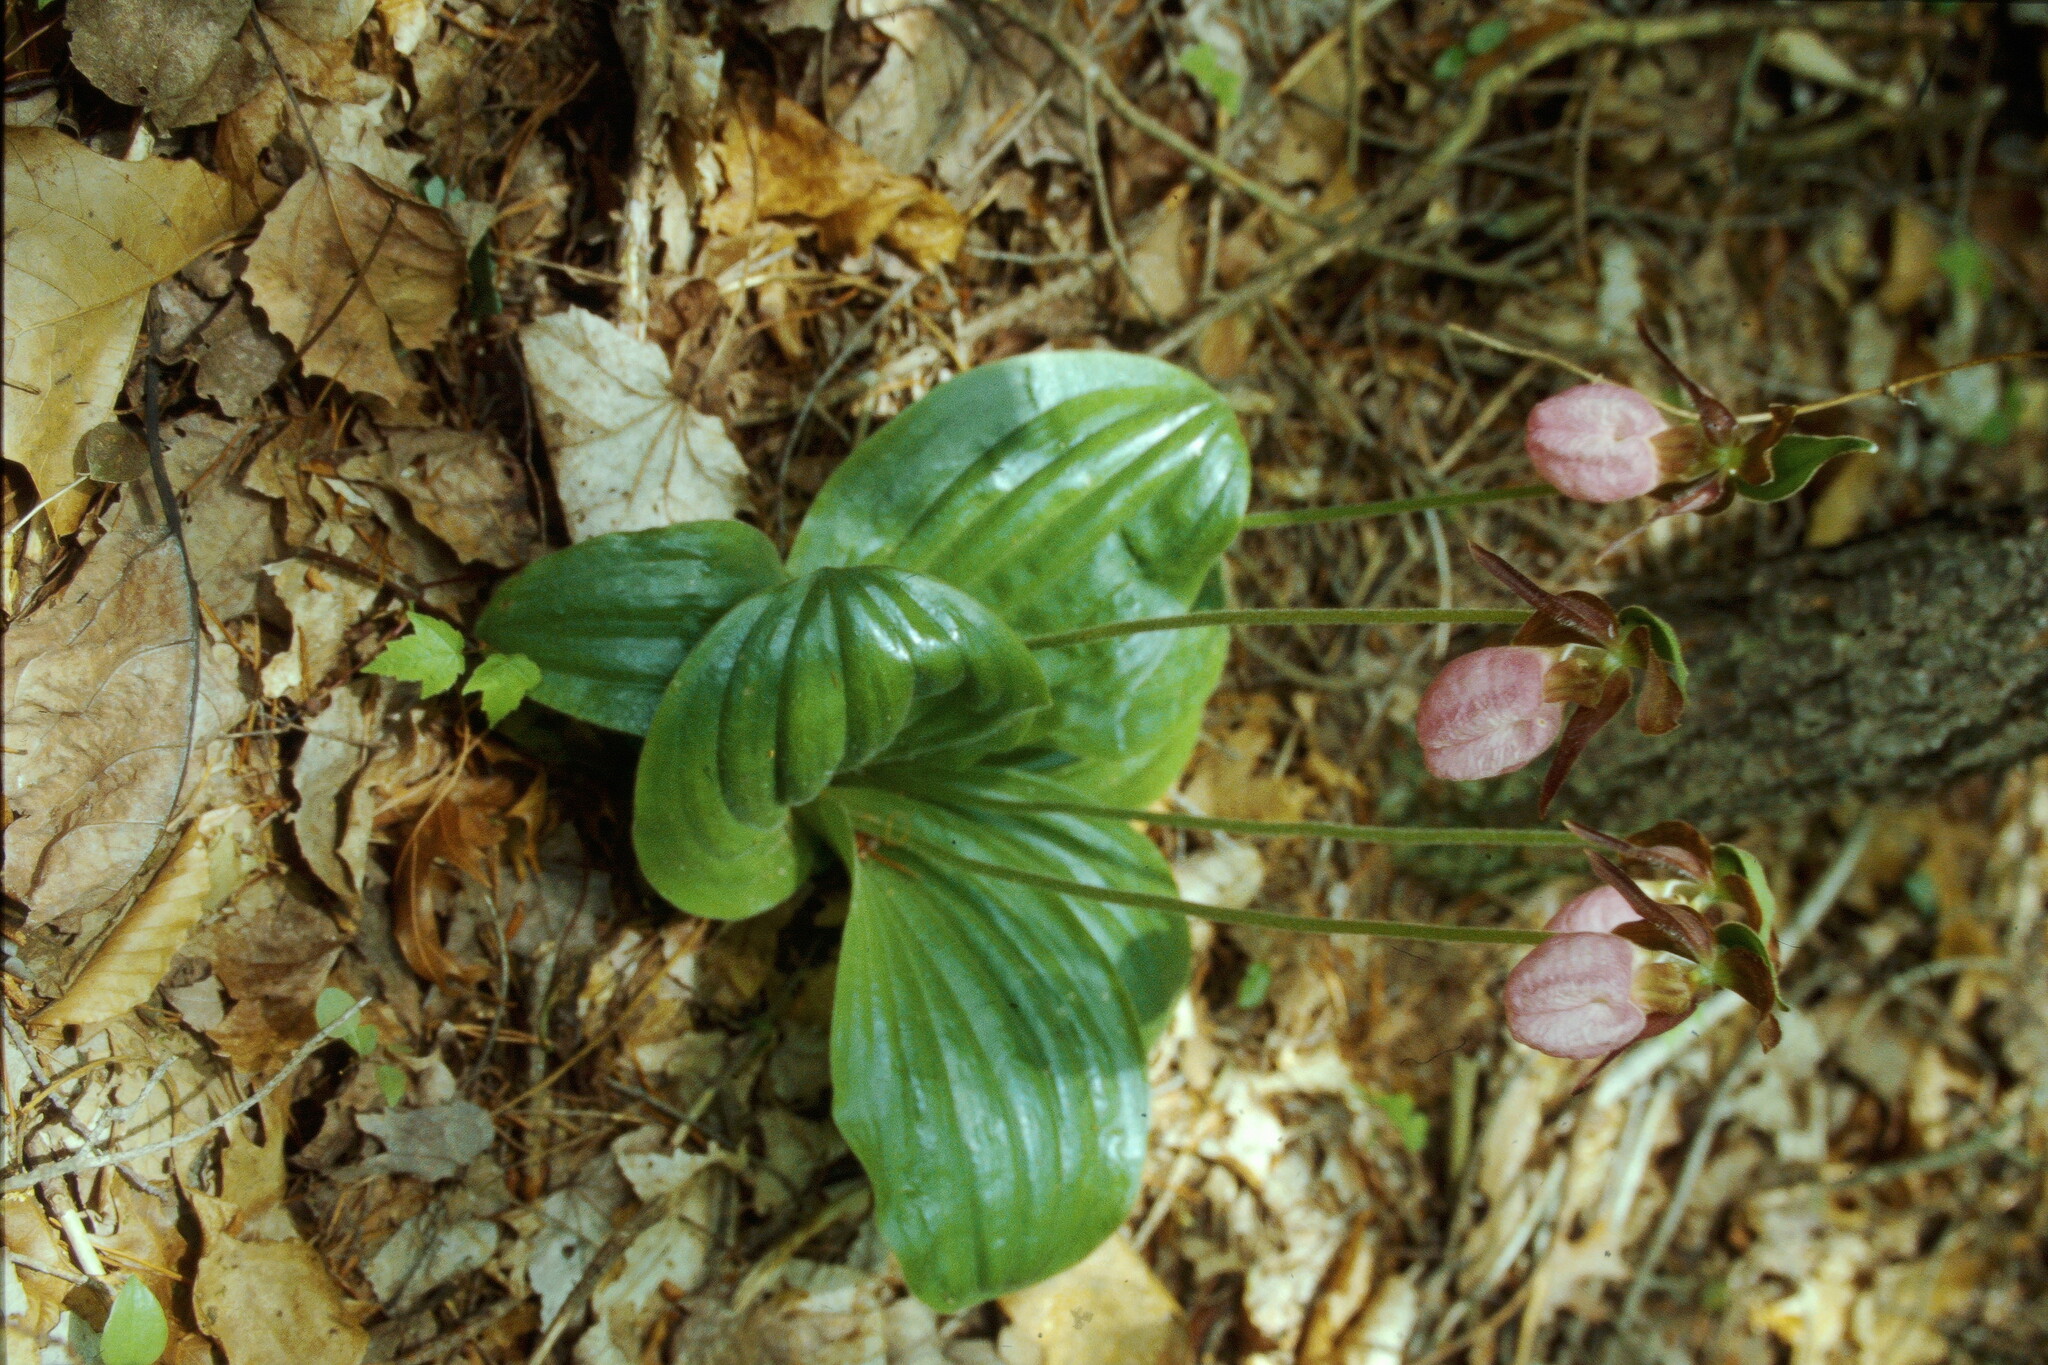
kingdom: Plantae
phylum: Tracheophyta
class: Liliopsida
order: Asparagales
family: Orchidaceae
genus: Cypripedium
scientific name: Cypripedium acaule
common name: Pink lady's-slipper
